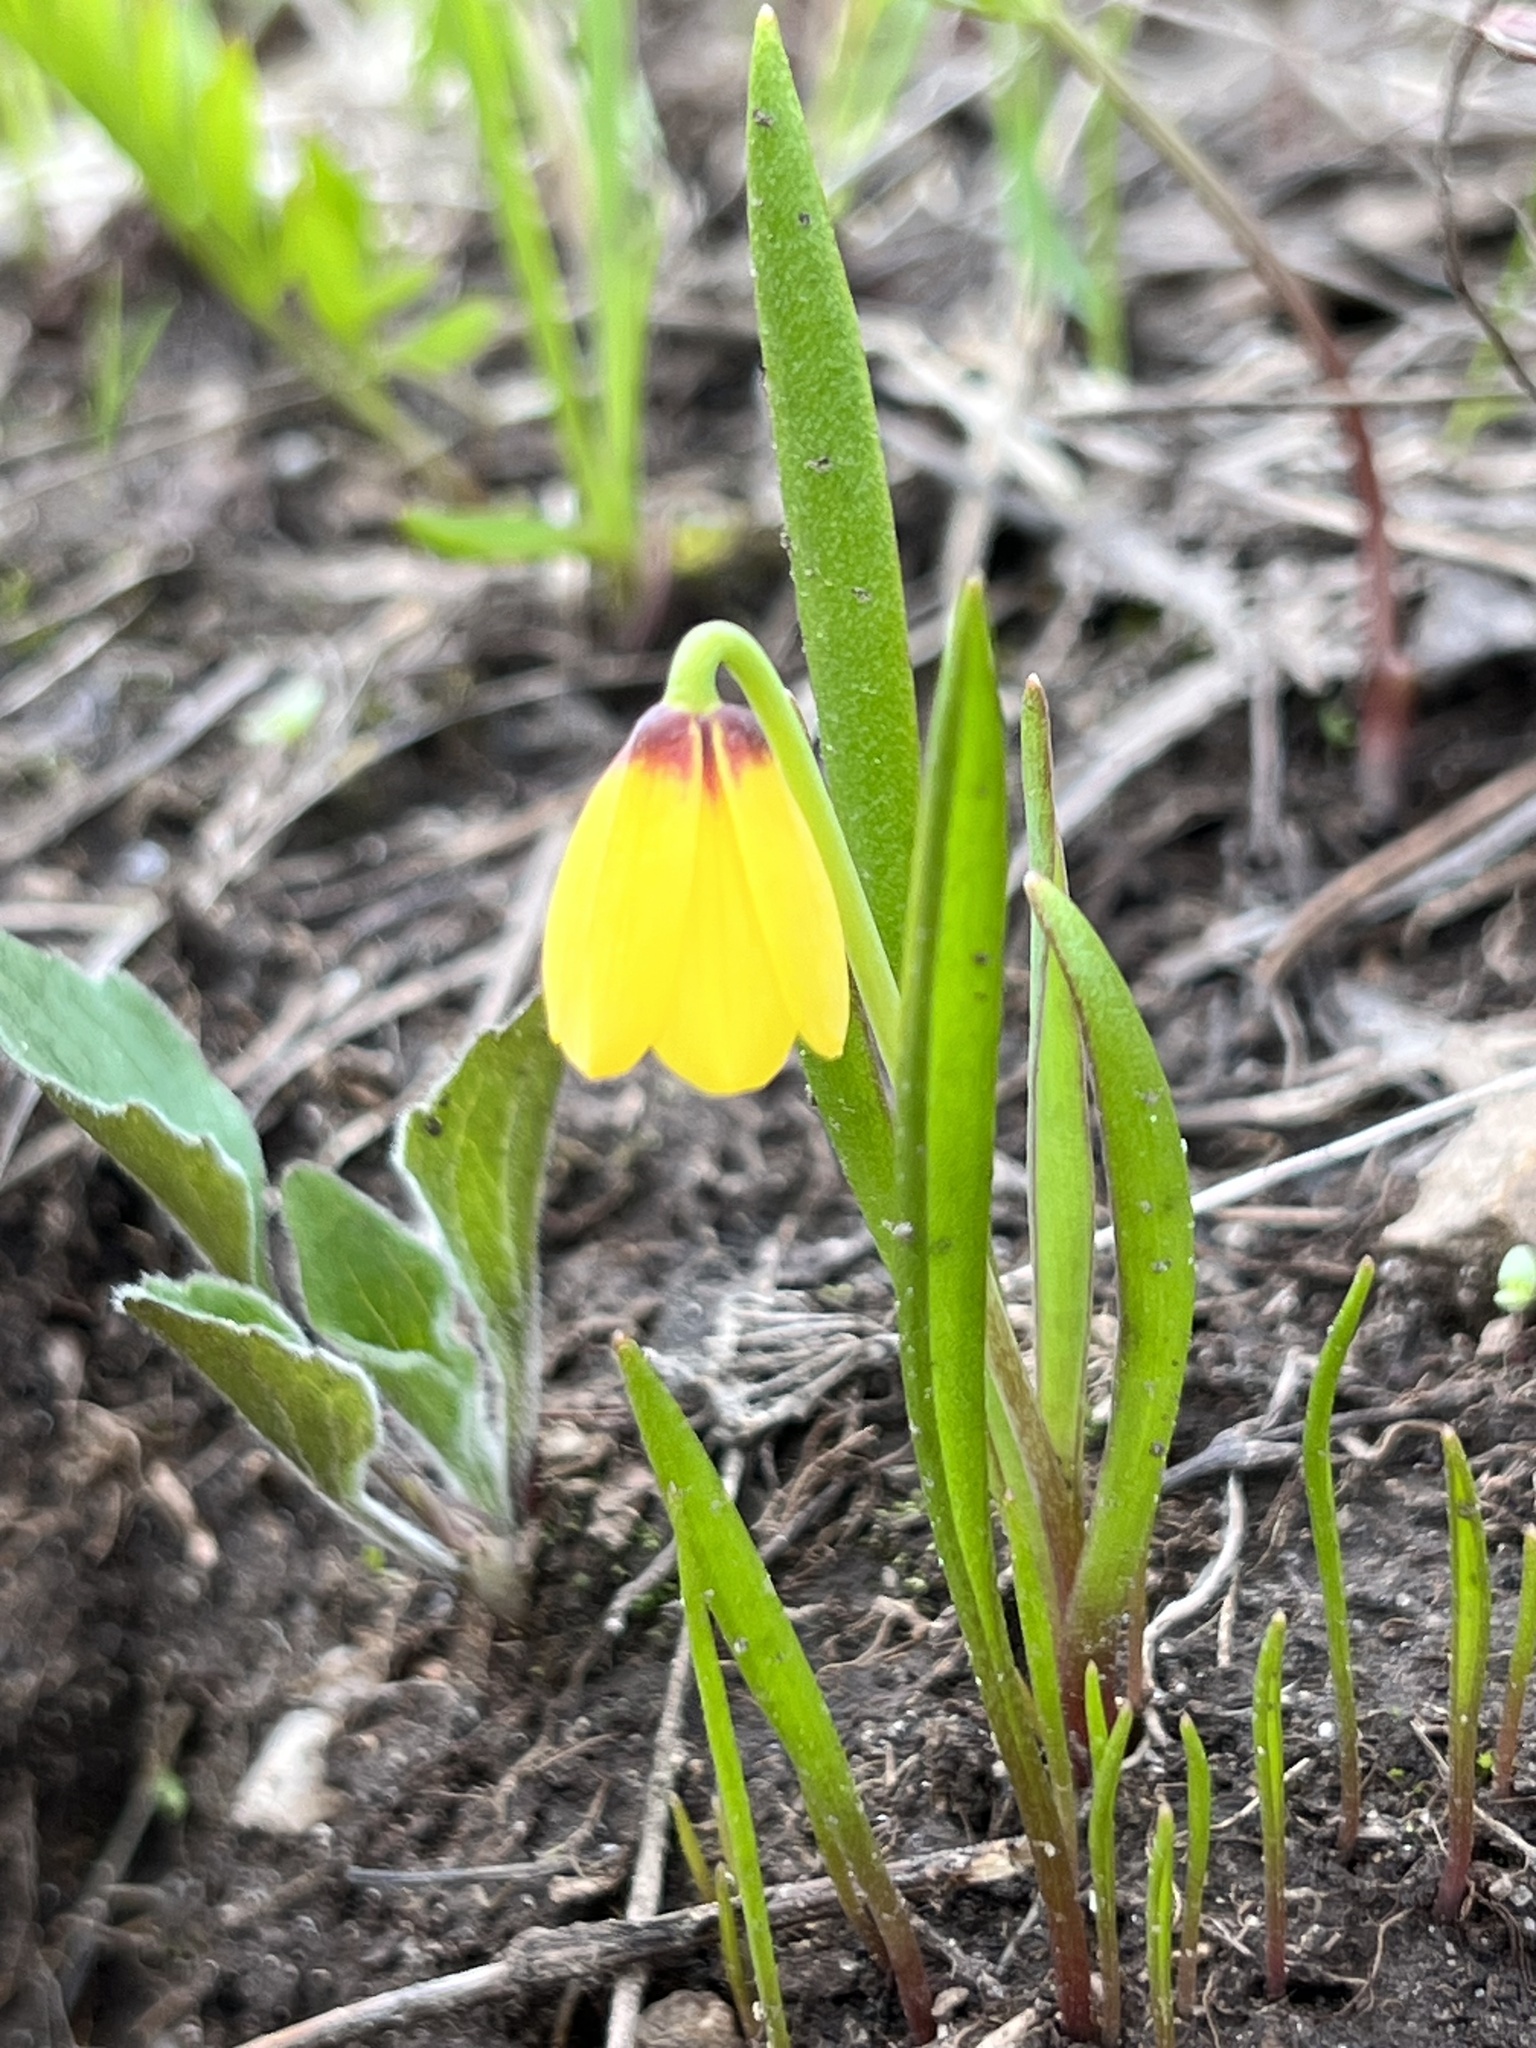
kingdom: Plantae
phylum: Tracheophyta
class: Liliopsida
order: Liliales
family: Liliaceae
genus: Fritillaria
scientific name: Fritillaria pudica
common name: Yellow fritillary
